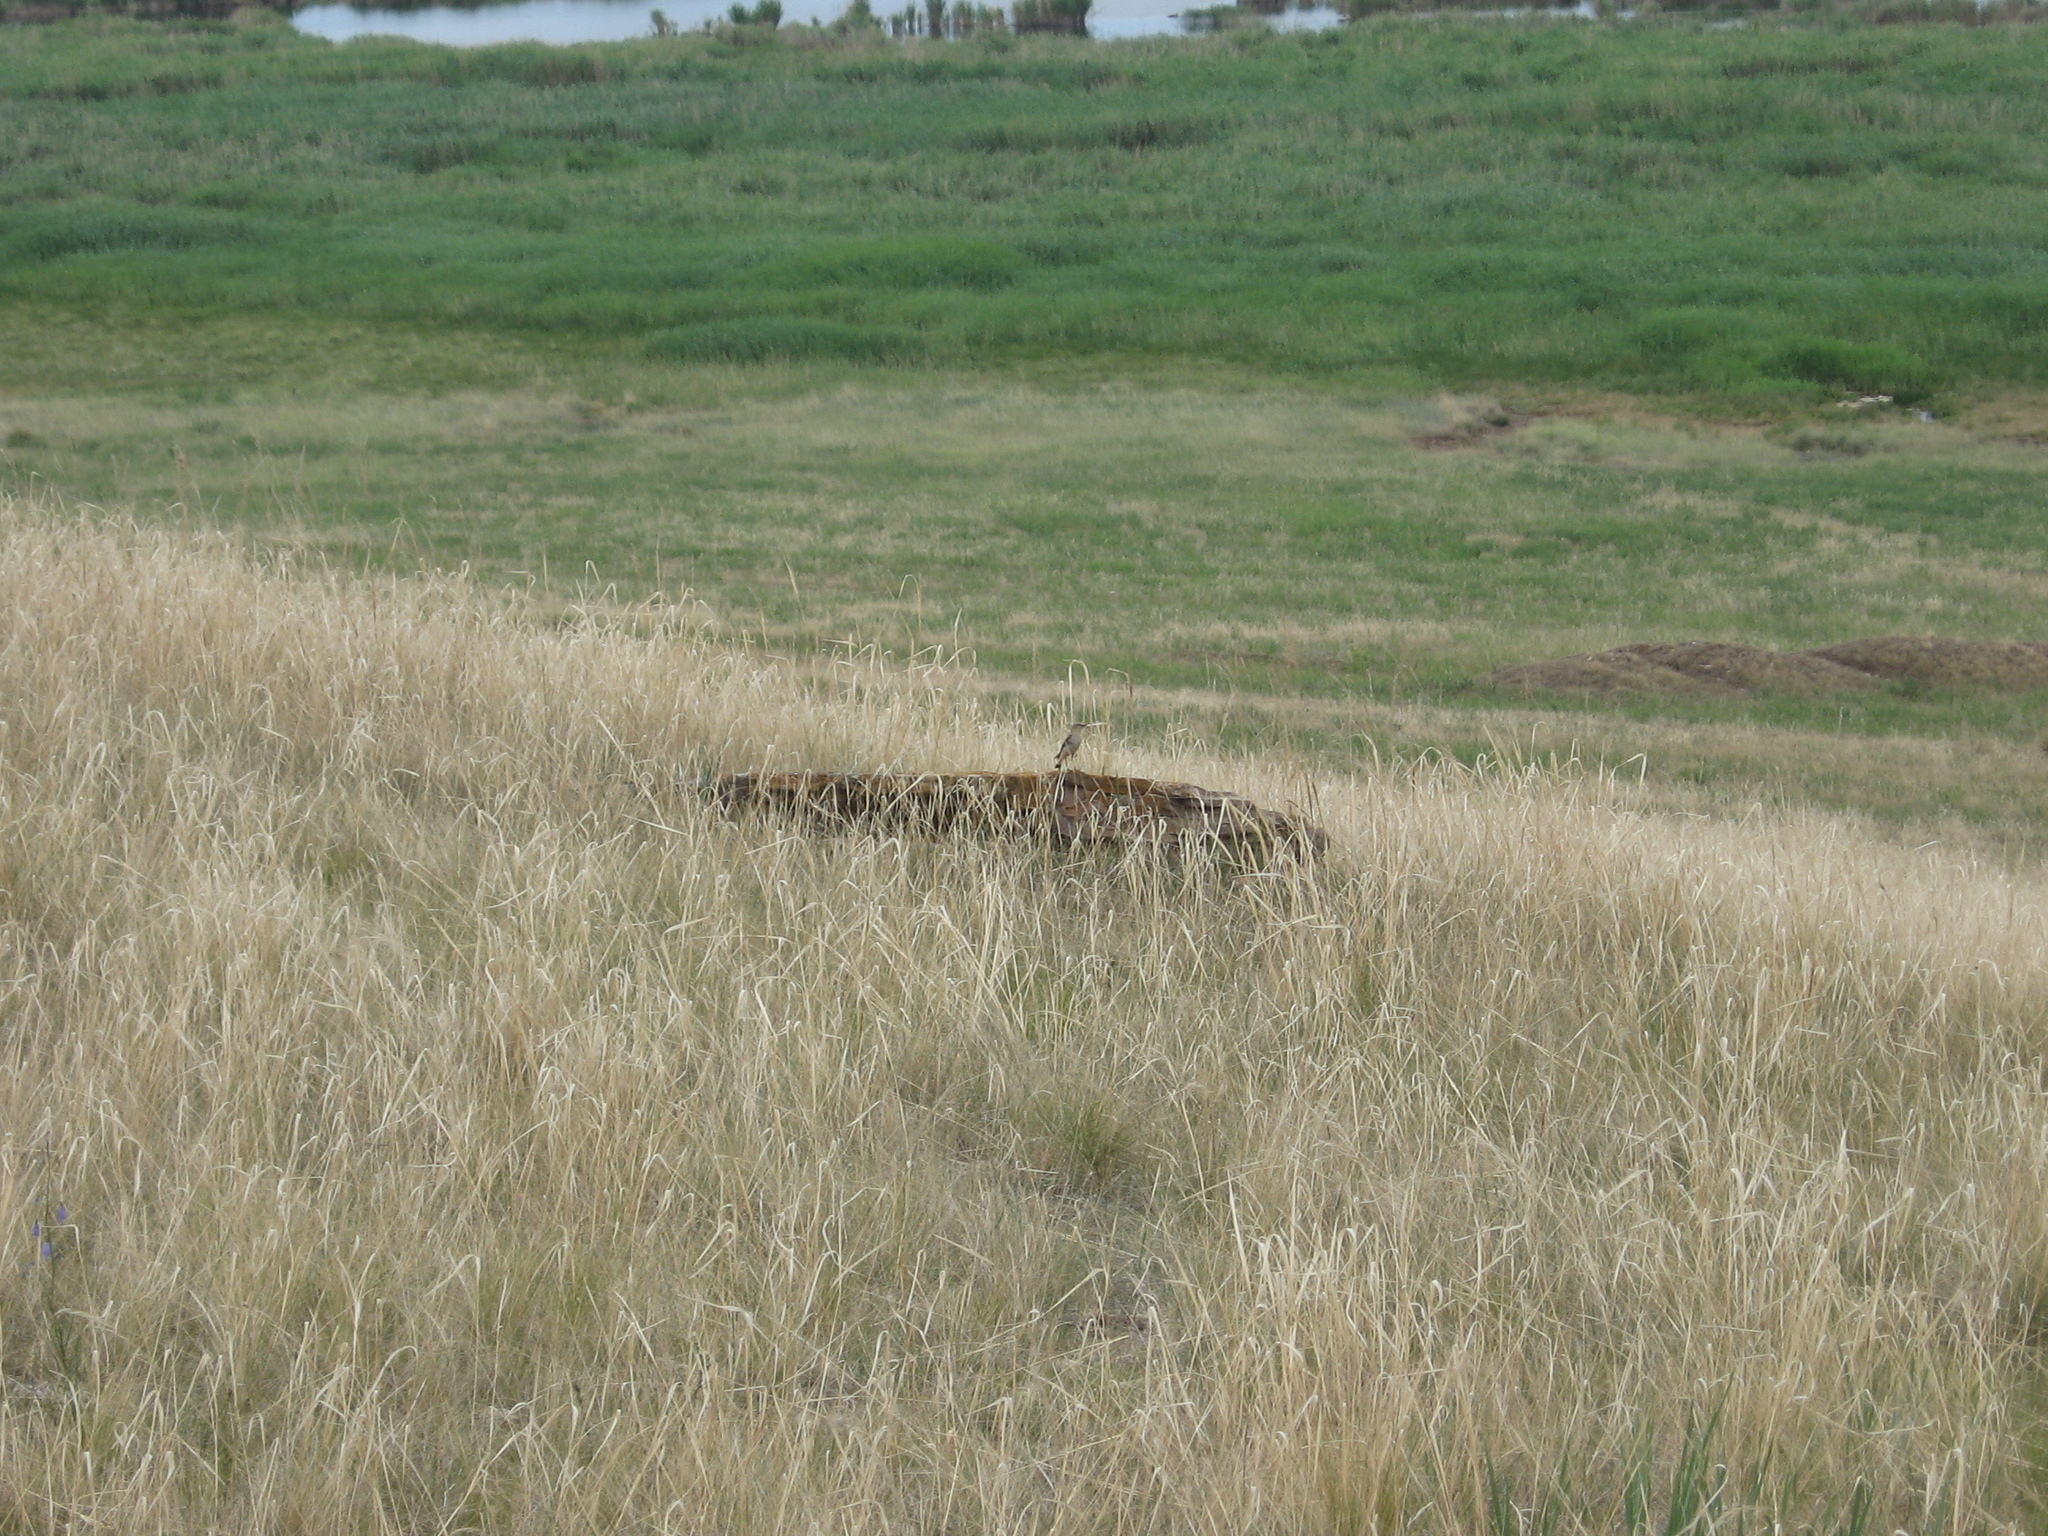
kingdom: Animalia
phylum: Chordata
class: Aves
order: Passeriformes
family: Muscicapidae
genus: Oenanthe
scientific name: Oenanthe
